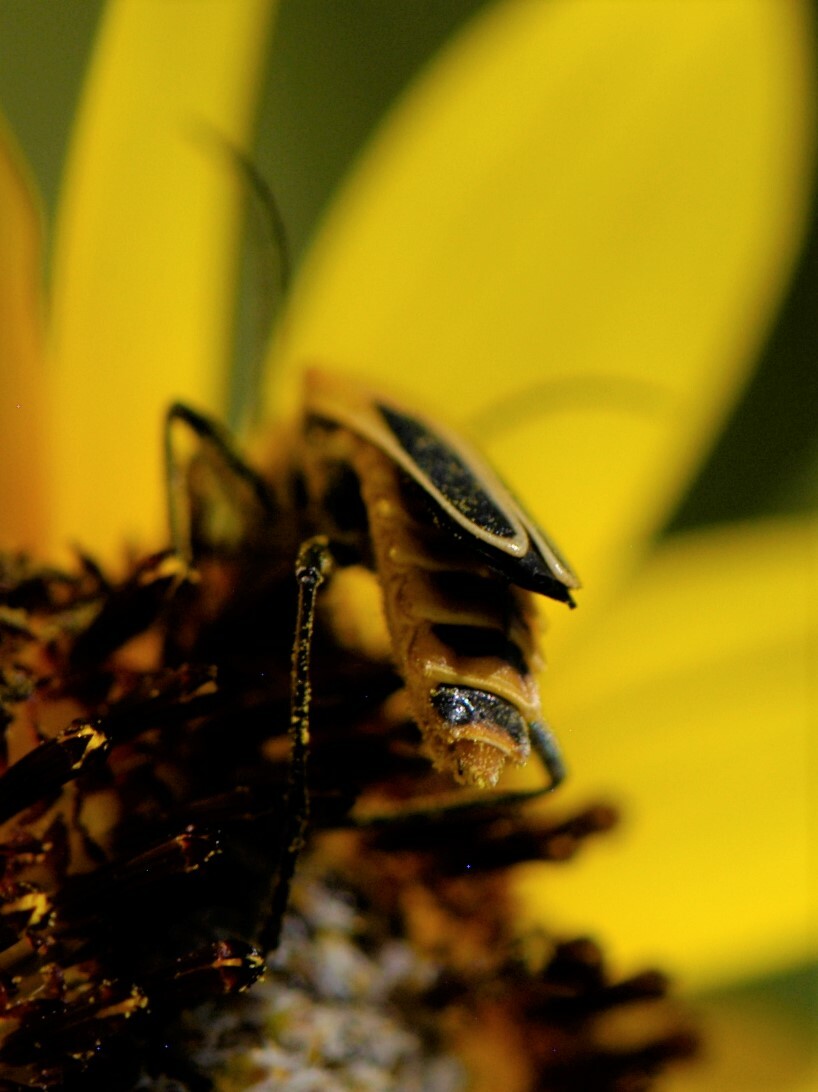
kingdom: Animalia
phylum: Arthropoda
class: Insecta
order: Coleoptera
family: Cantharidae
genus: Chauliognathus
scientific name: Chauliognathus lewisi
